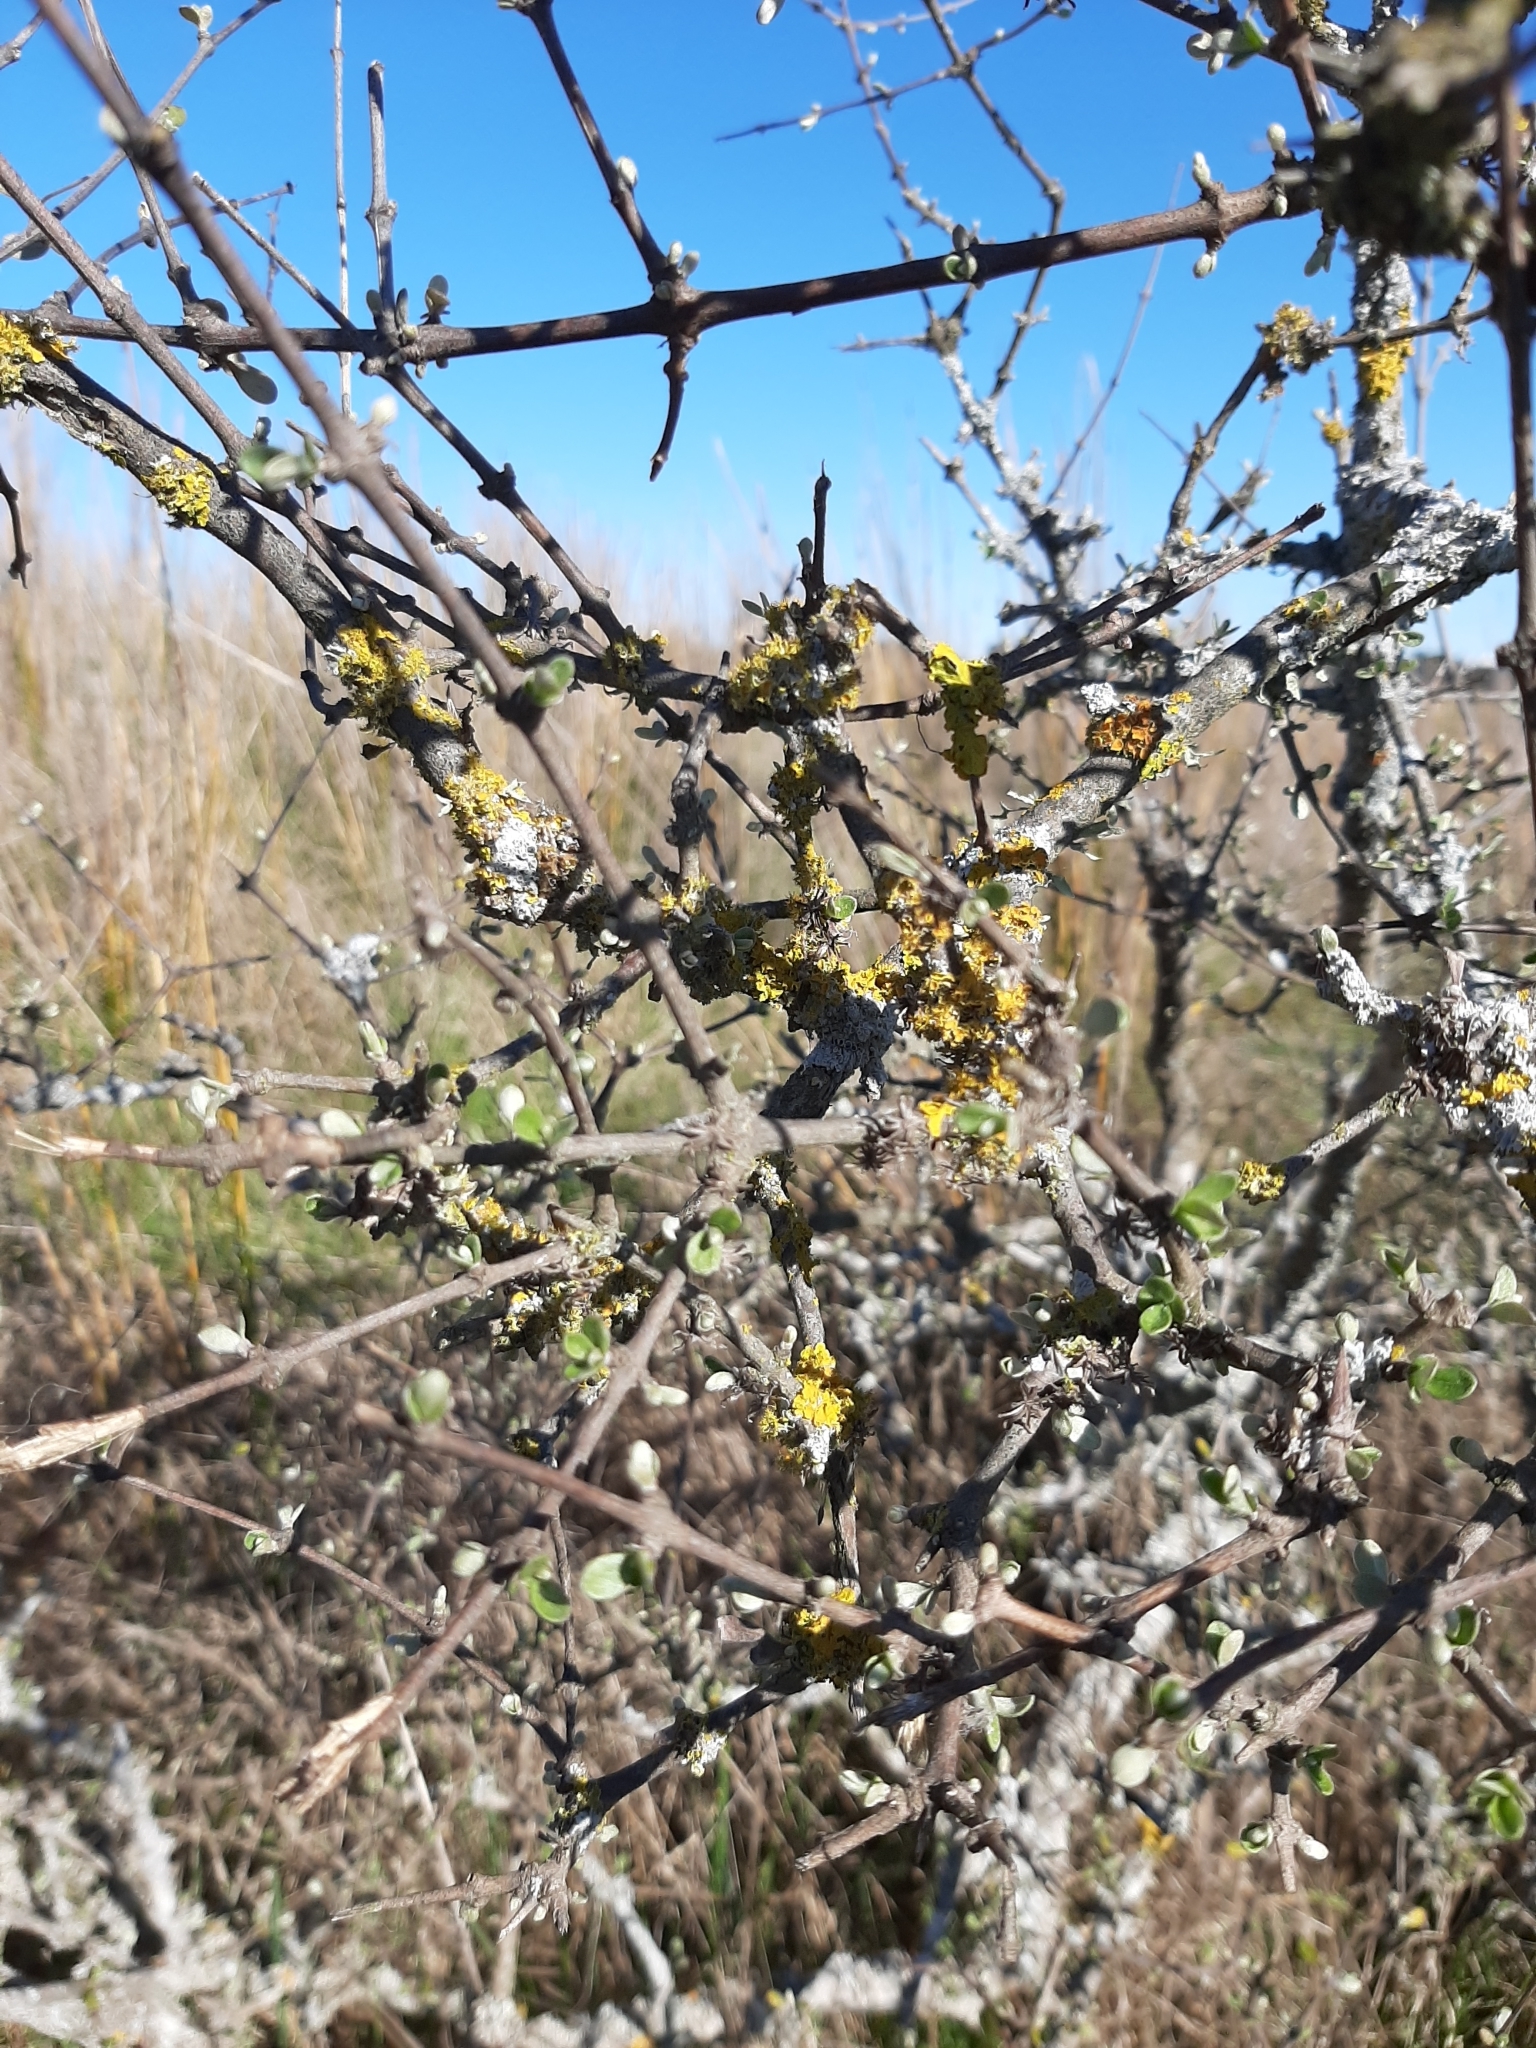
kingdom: Plantae
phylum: Tracheophyta
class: Magnoliopsida
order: Asterales
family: Asteraceae
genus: Olearia
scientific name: Olearia adenocarpa
